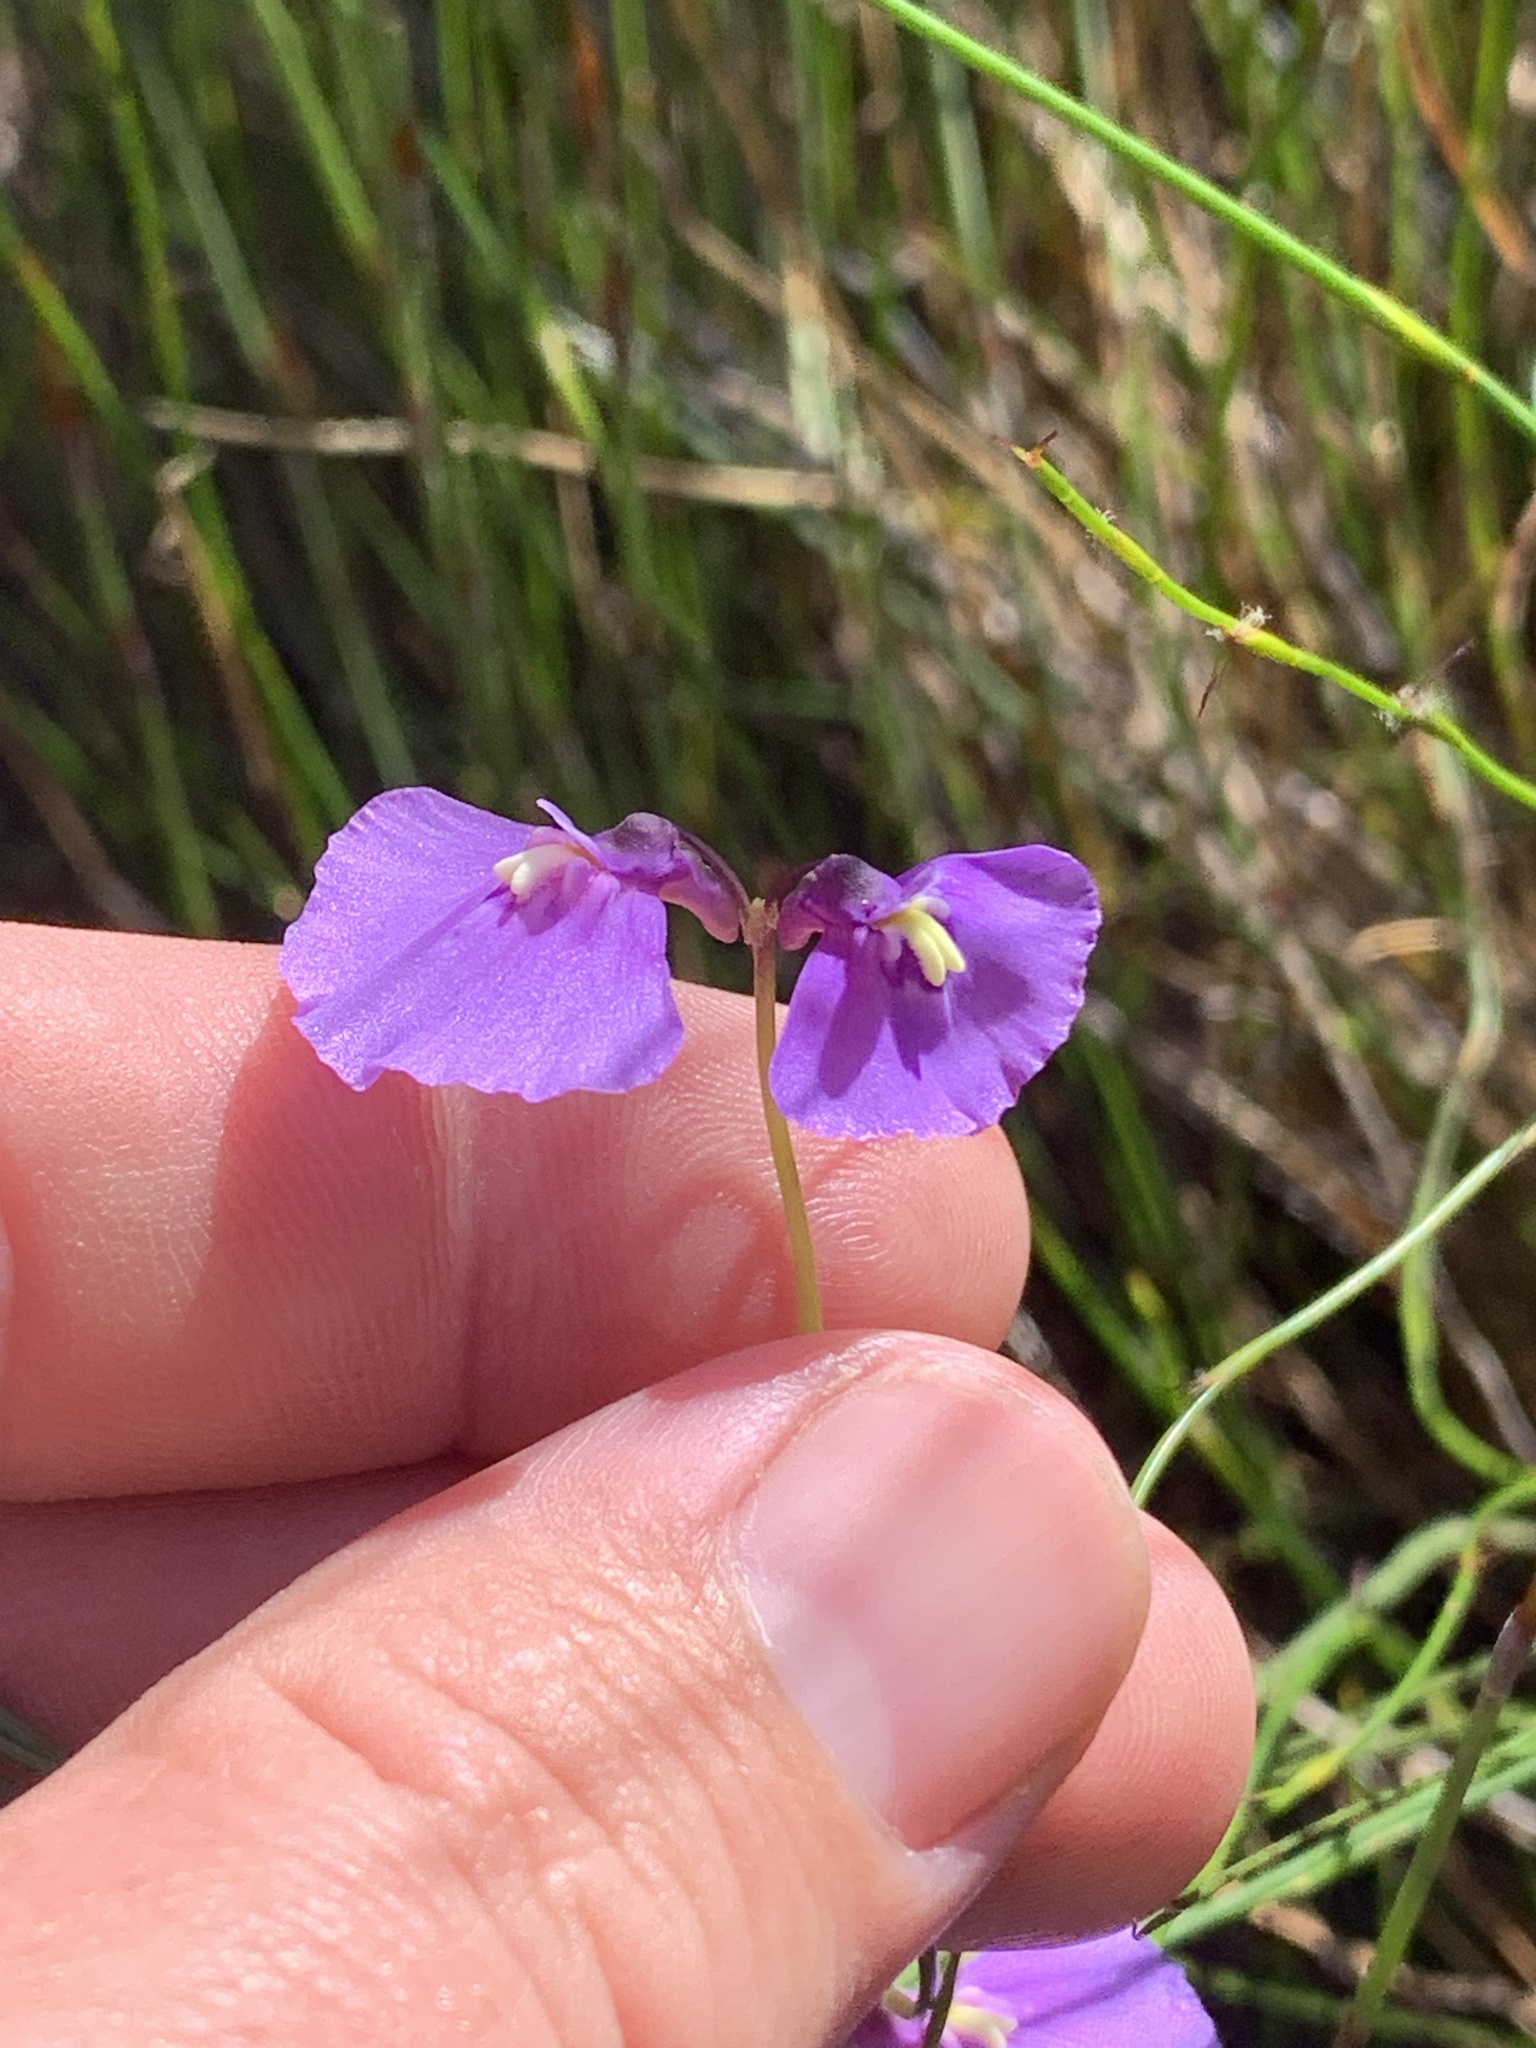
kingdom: Plantae
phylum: Tracheophyta
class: Magnoliopsida
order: Lamiales
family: Lentibulariaceae
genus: Utricularia
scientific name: Utricularia dichotoma
